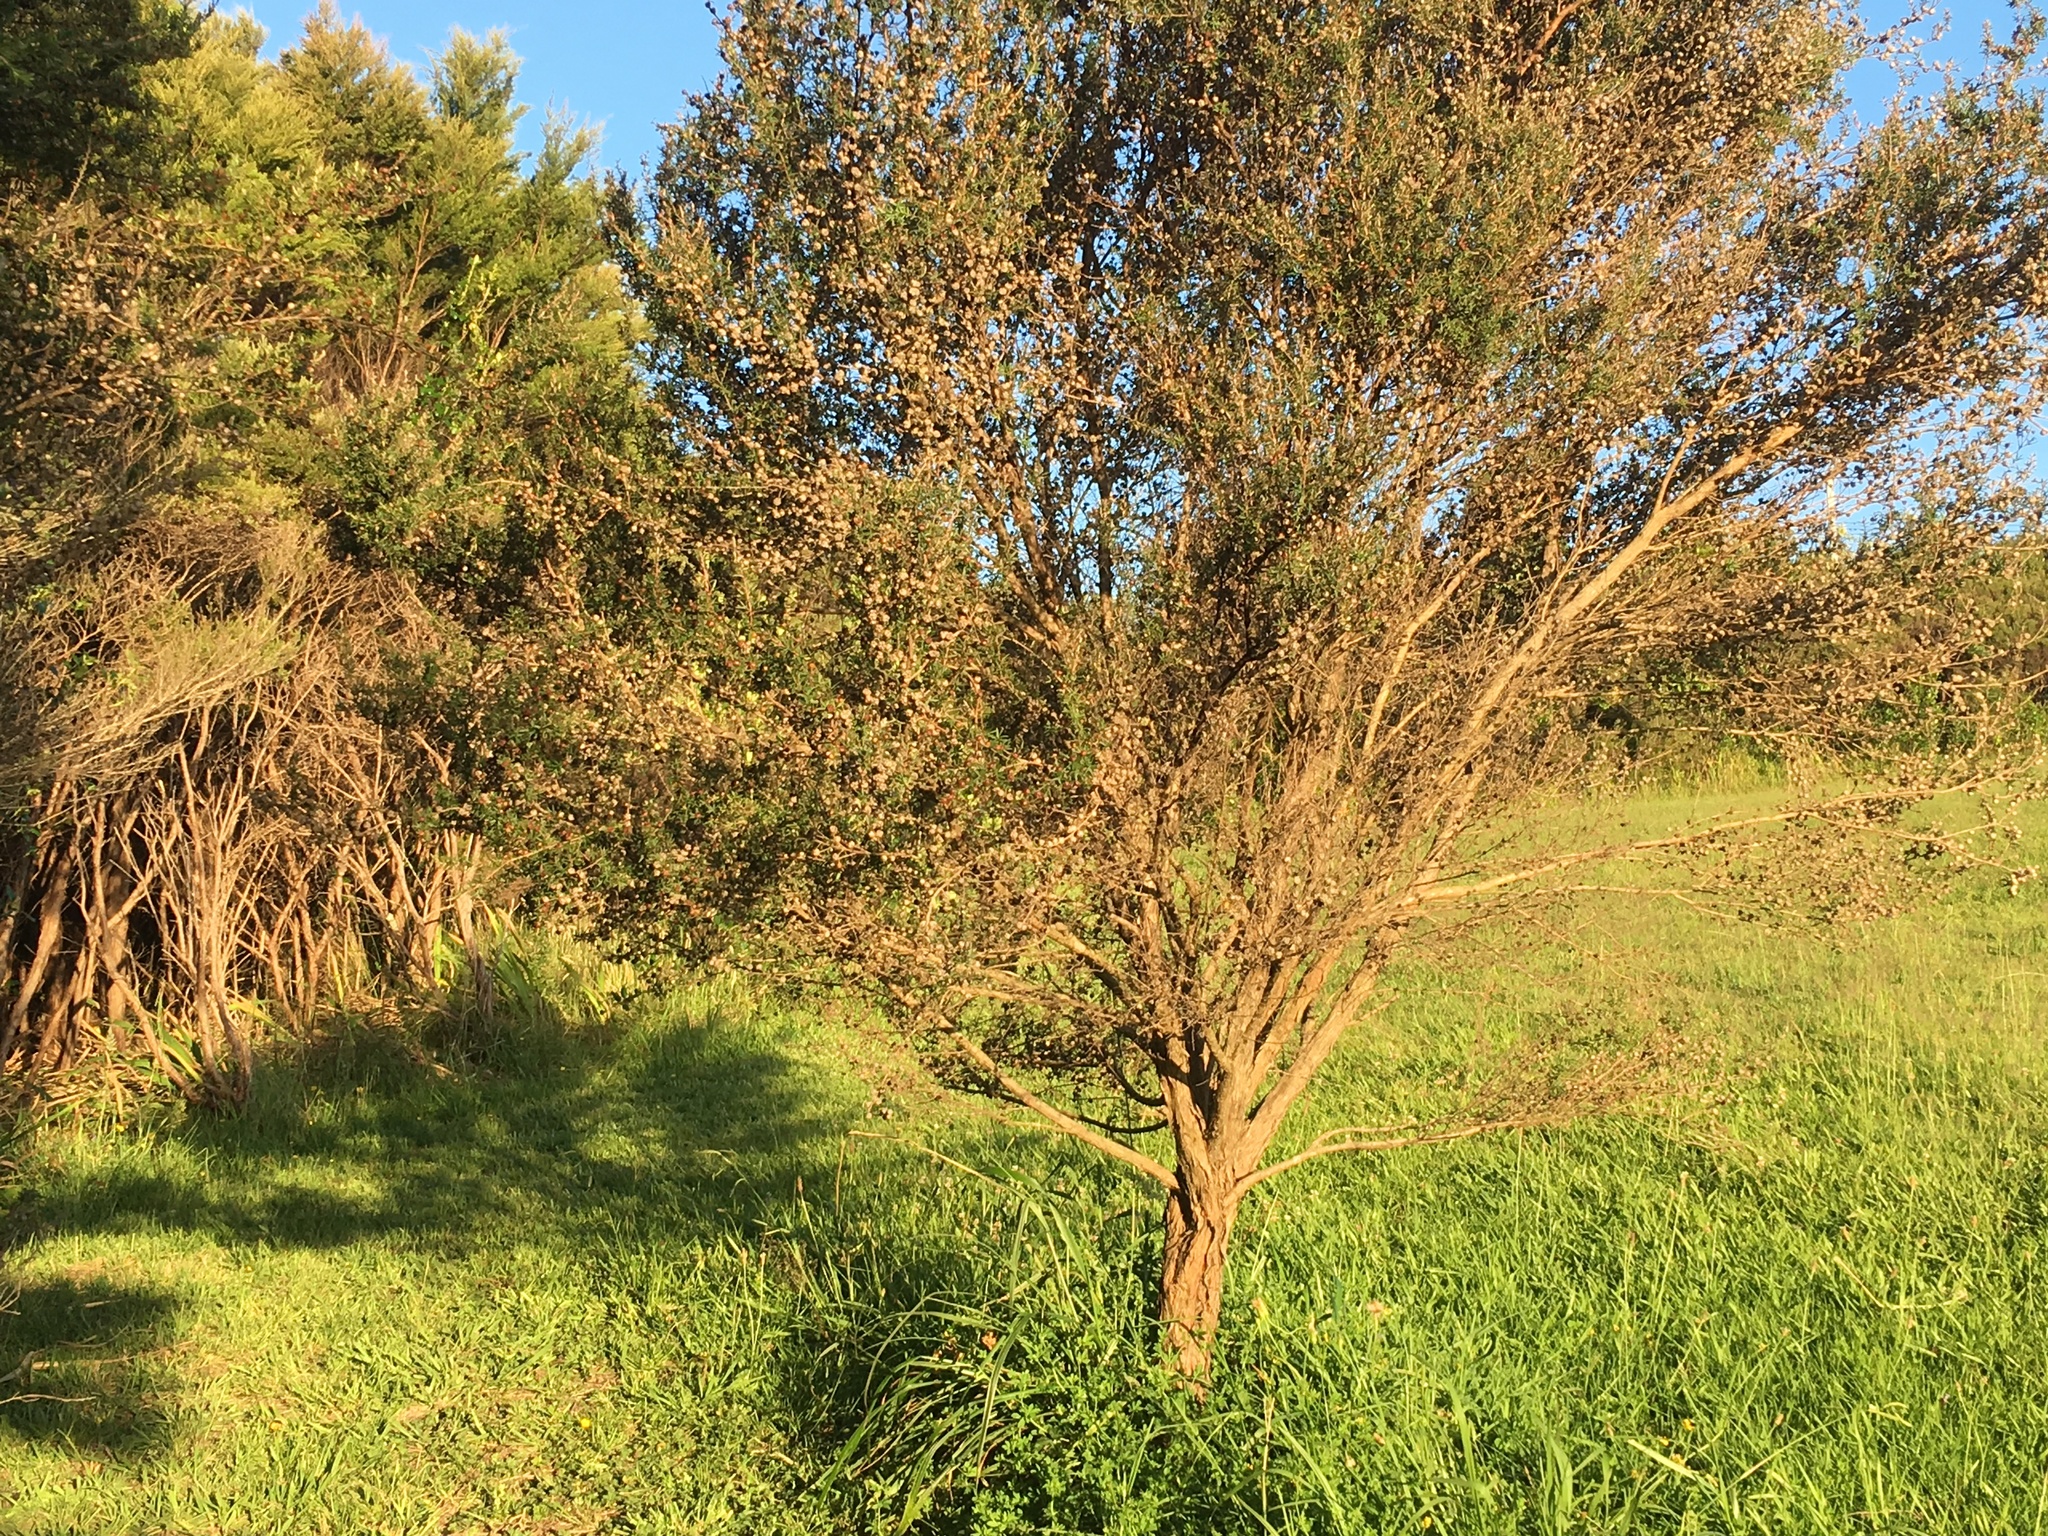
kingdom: Plantae
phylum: Tracheophyta
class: Magnoliopsida
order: Myrtales
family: Myrtaceae
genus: Leptospermum
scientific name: Leptospermum scoparium
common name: Broom tea-tree
